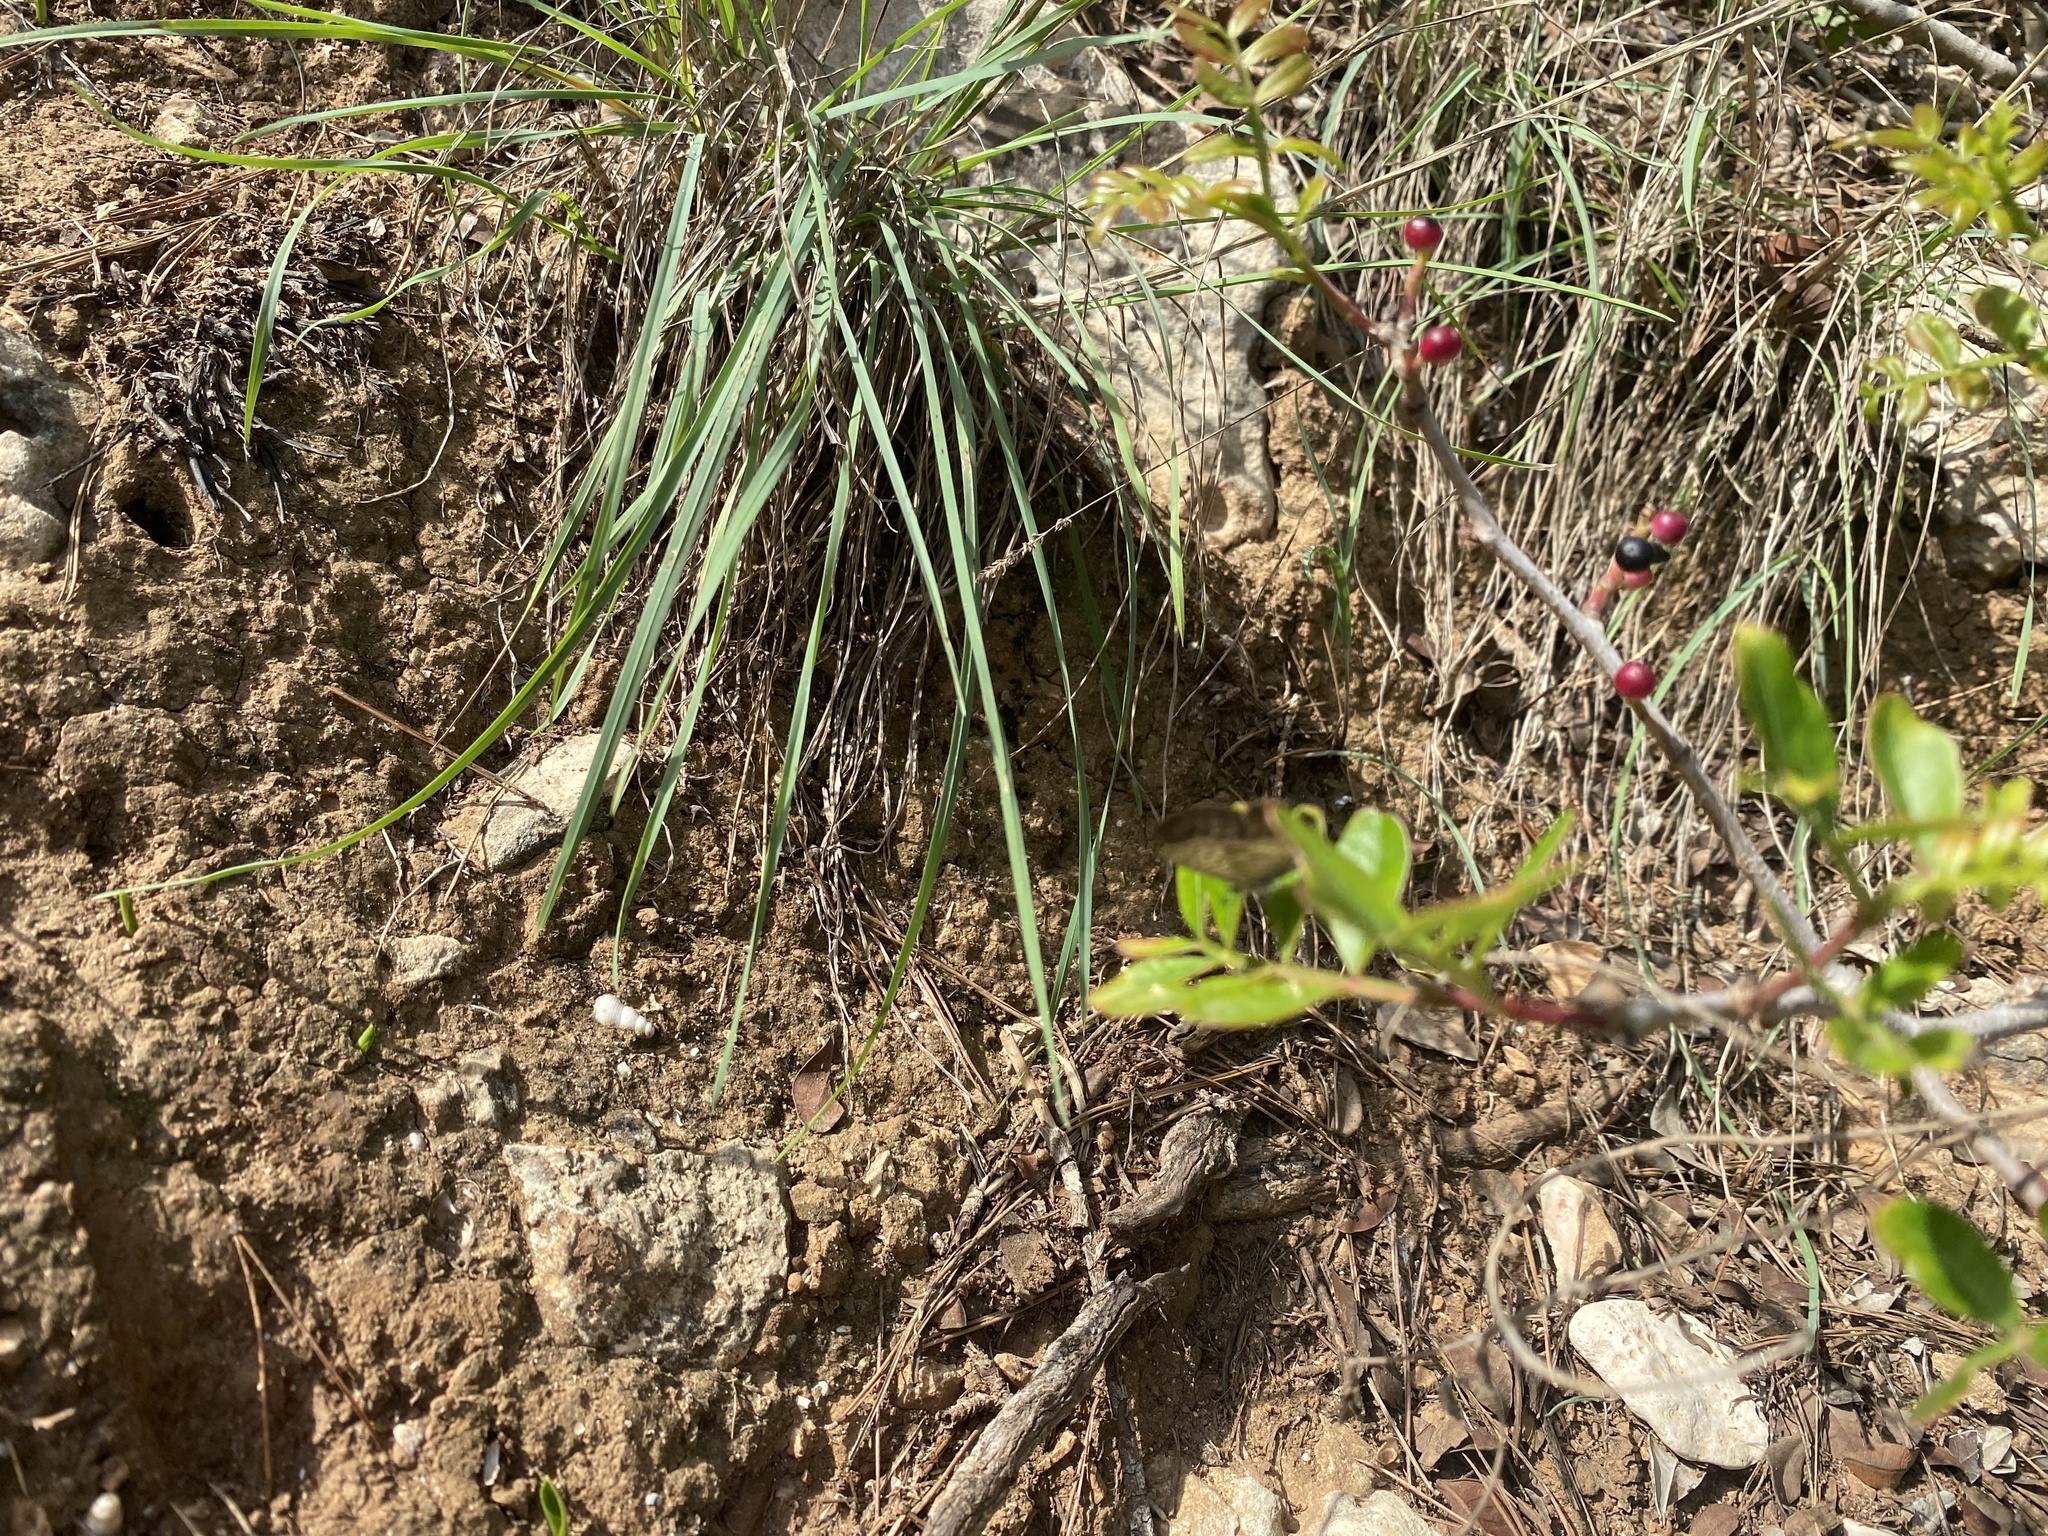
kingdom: Animalia
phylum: Arthropoda
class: Insecta
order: Lepidoptera
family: Lycaenidae
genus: Leptotes
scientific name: Leptotes pirithous
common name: Lang's short-tailed blue
